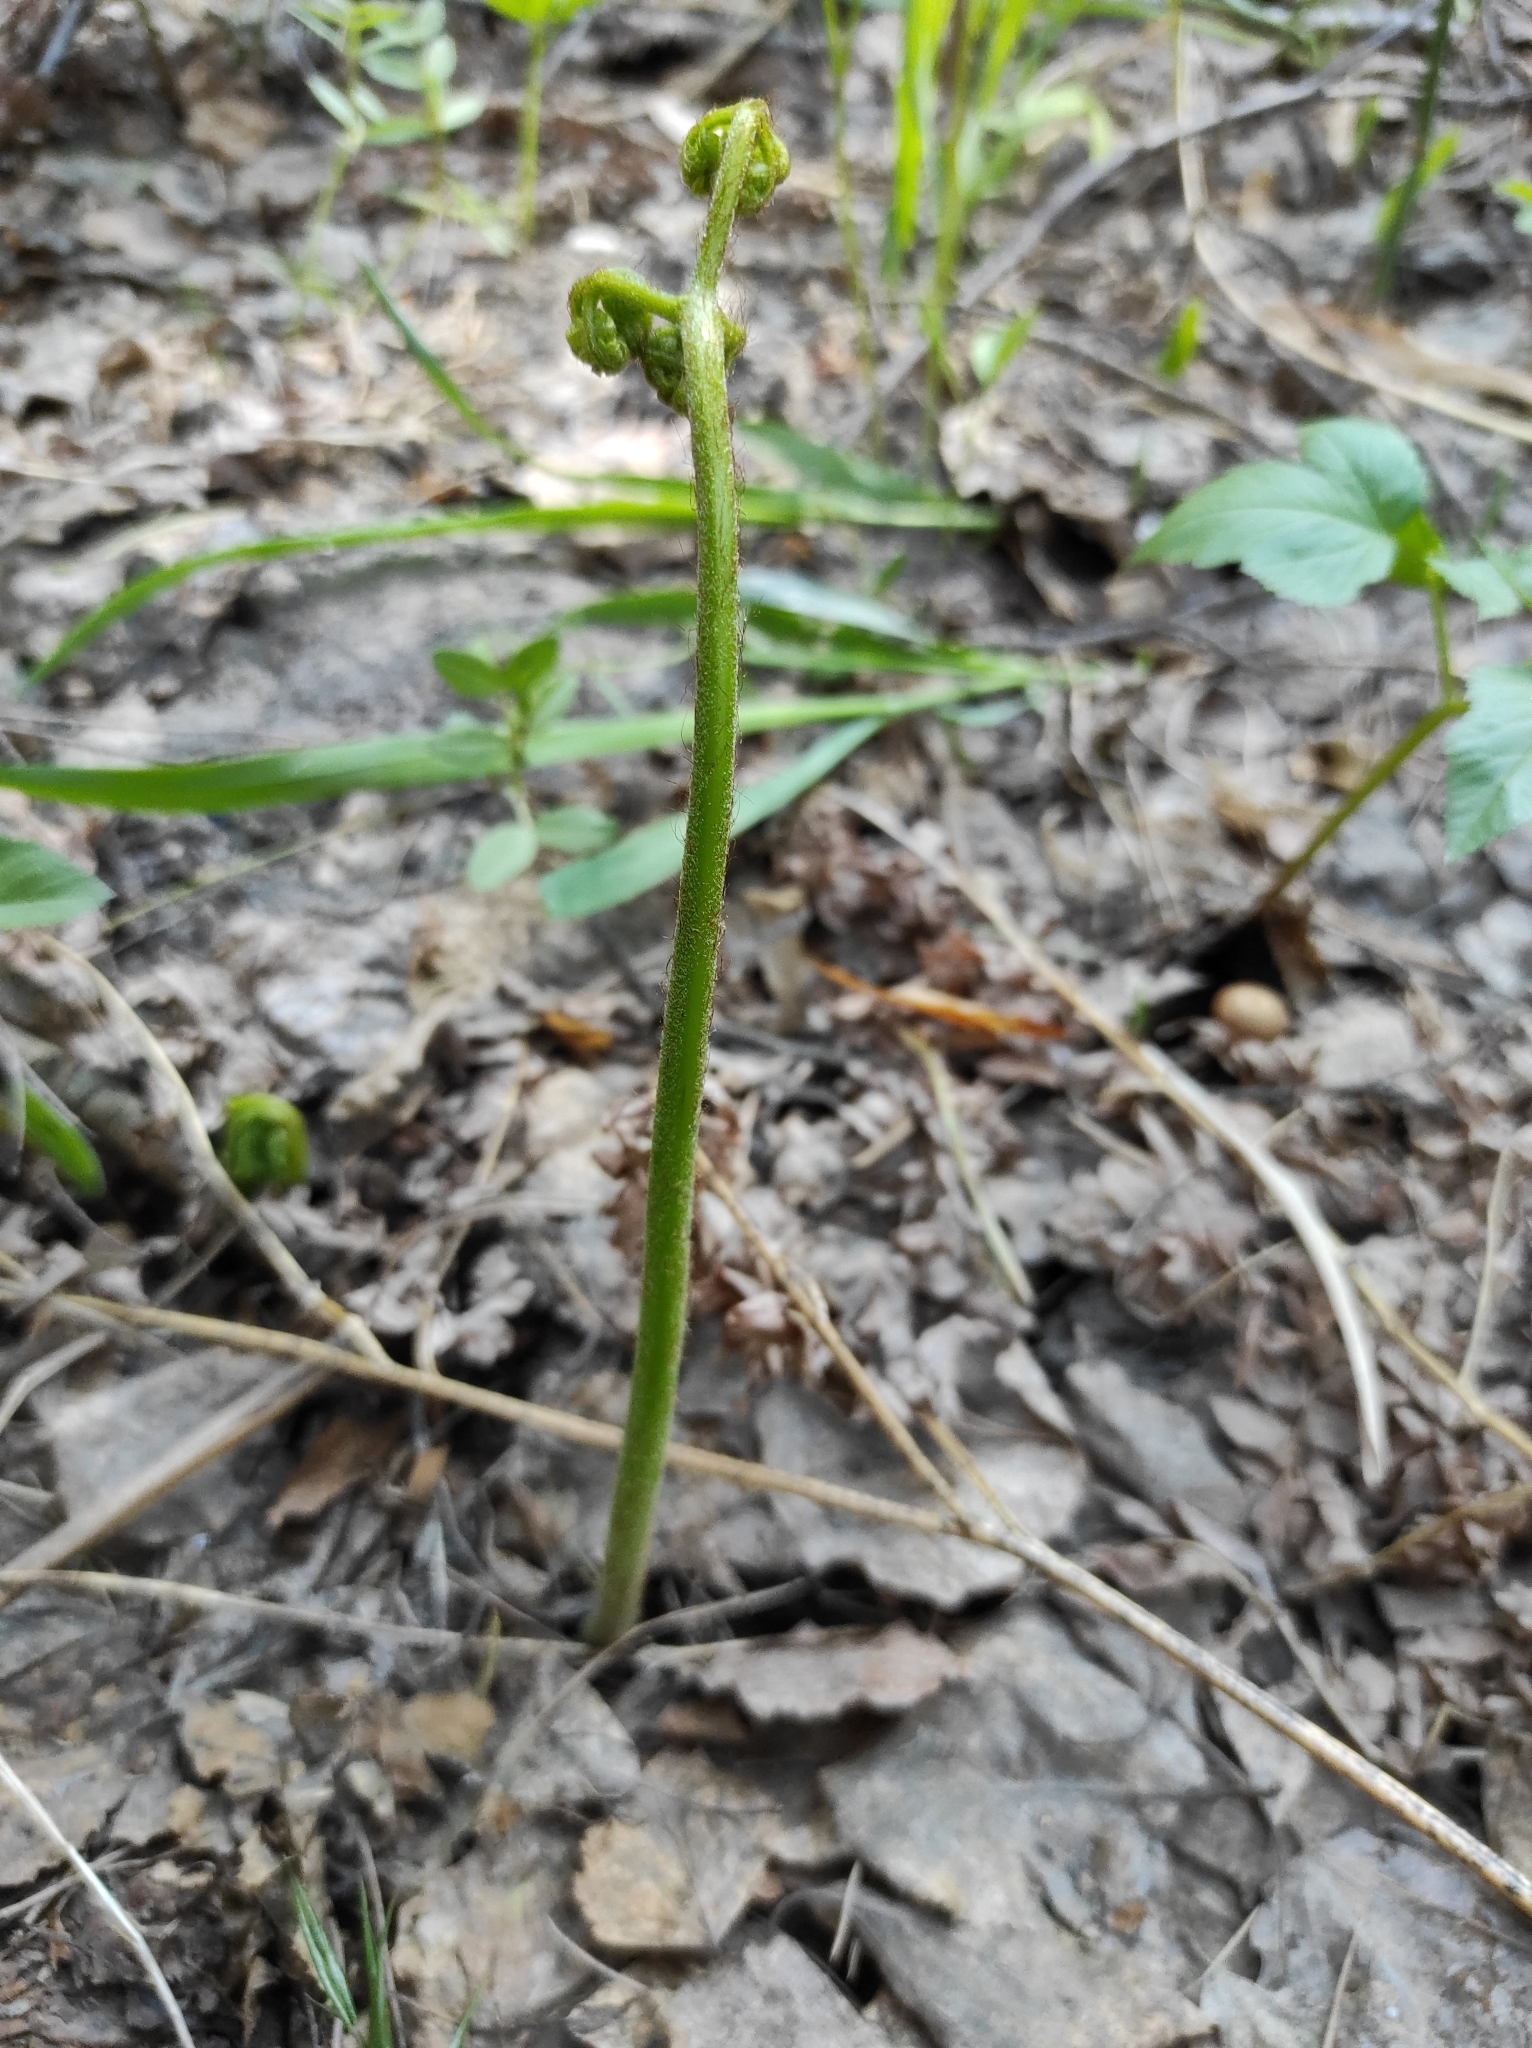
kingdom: Plantae
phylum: Tracheophyta
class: Polypodiopsida
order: Polypodiales
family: Dennstaedtiaceae
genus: Pteridium
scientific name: Pteridium aquilinum
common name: Bracken
